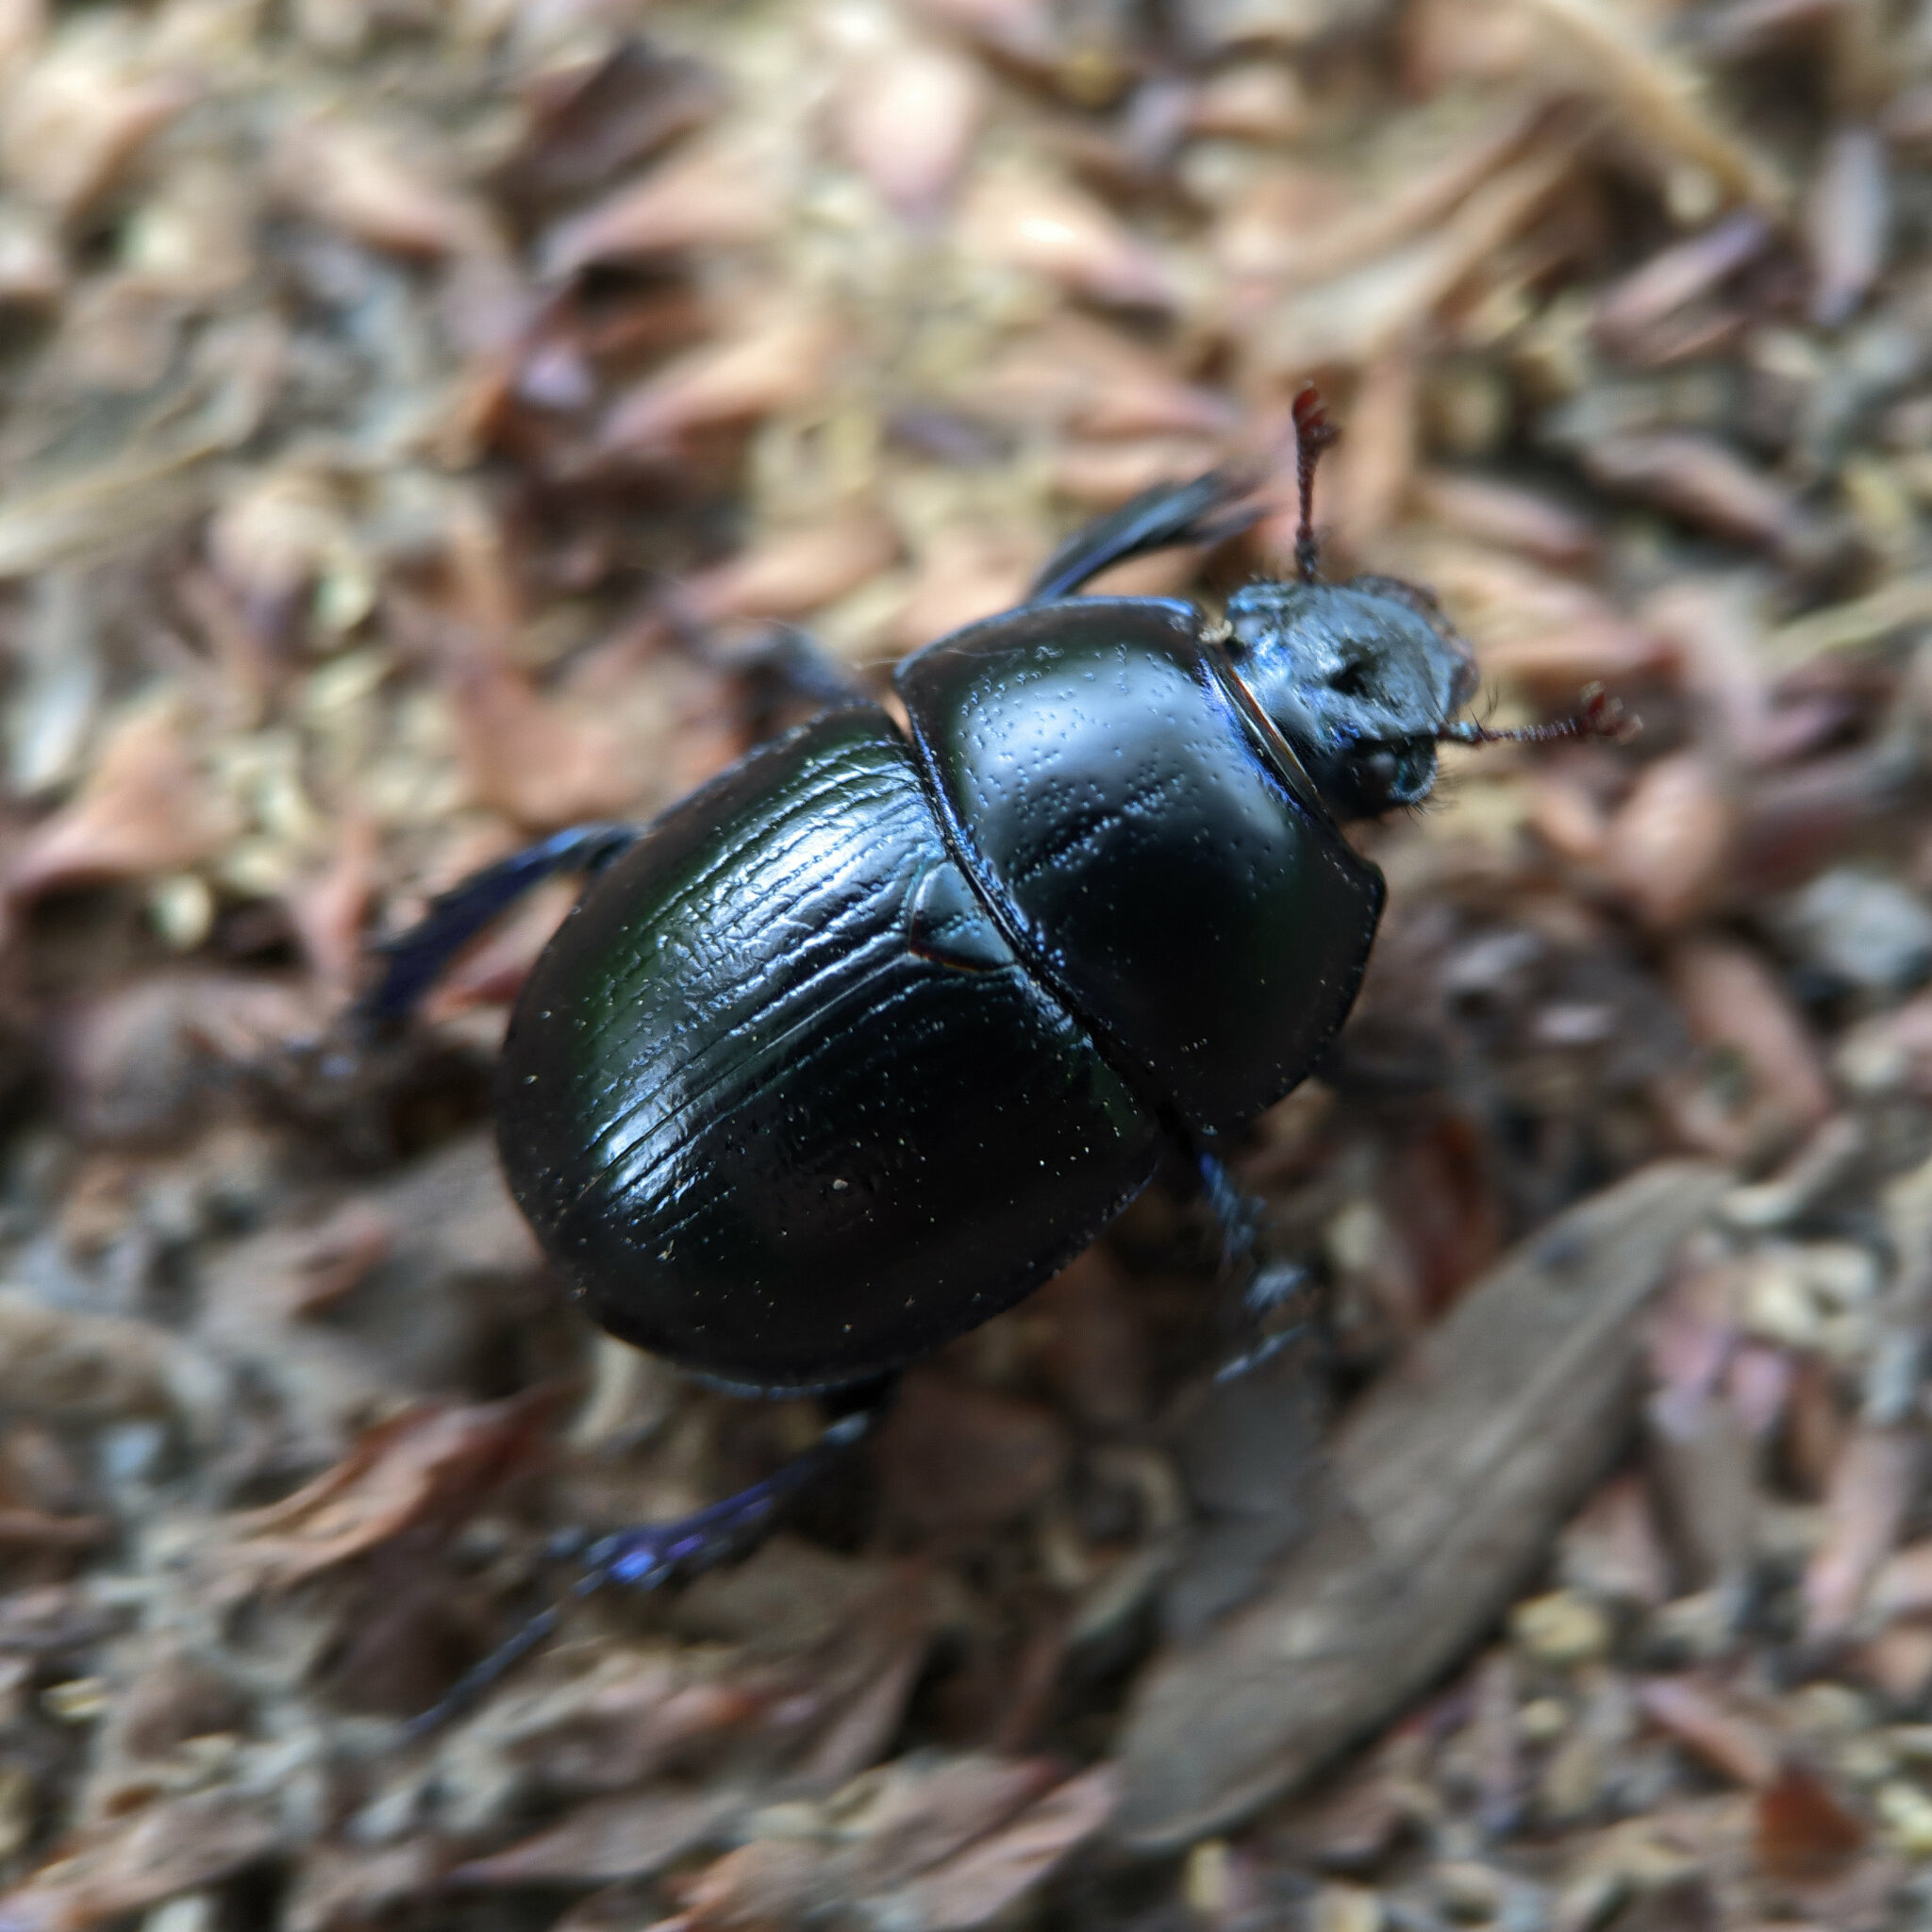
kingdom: Animalia
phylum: Arthropoda
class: Insecta
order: Coleoptera
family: Geotrupidae
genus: Anoplotrupes
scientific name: Anoplotrupes stercorosus
